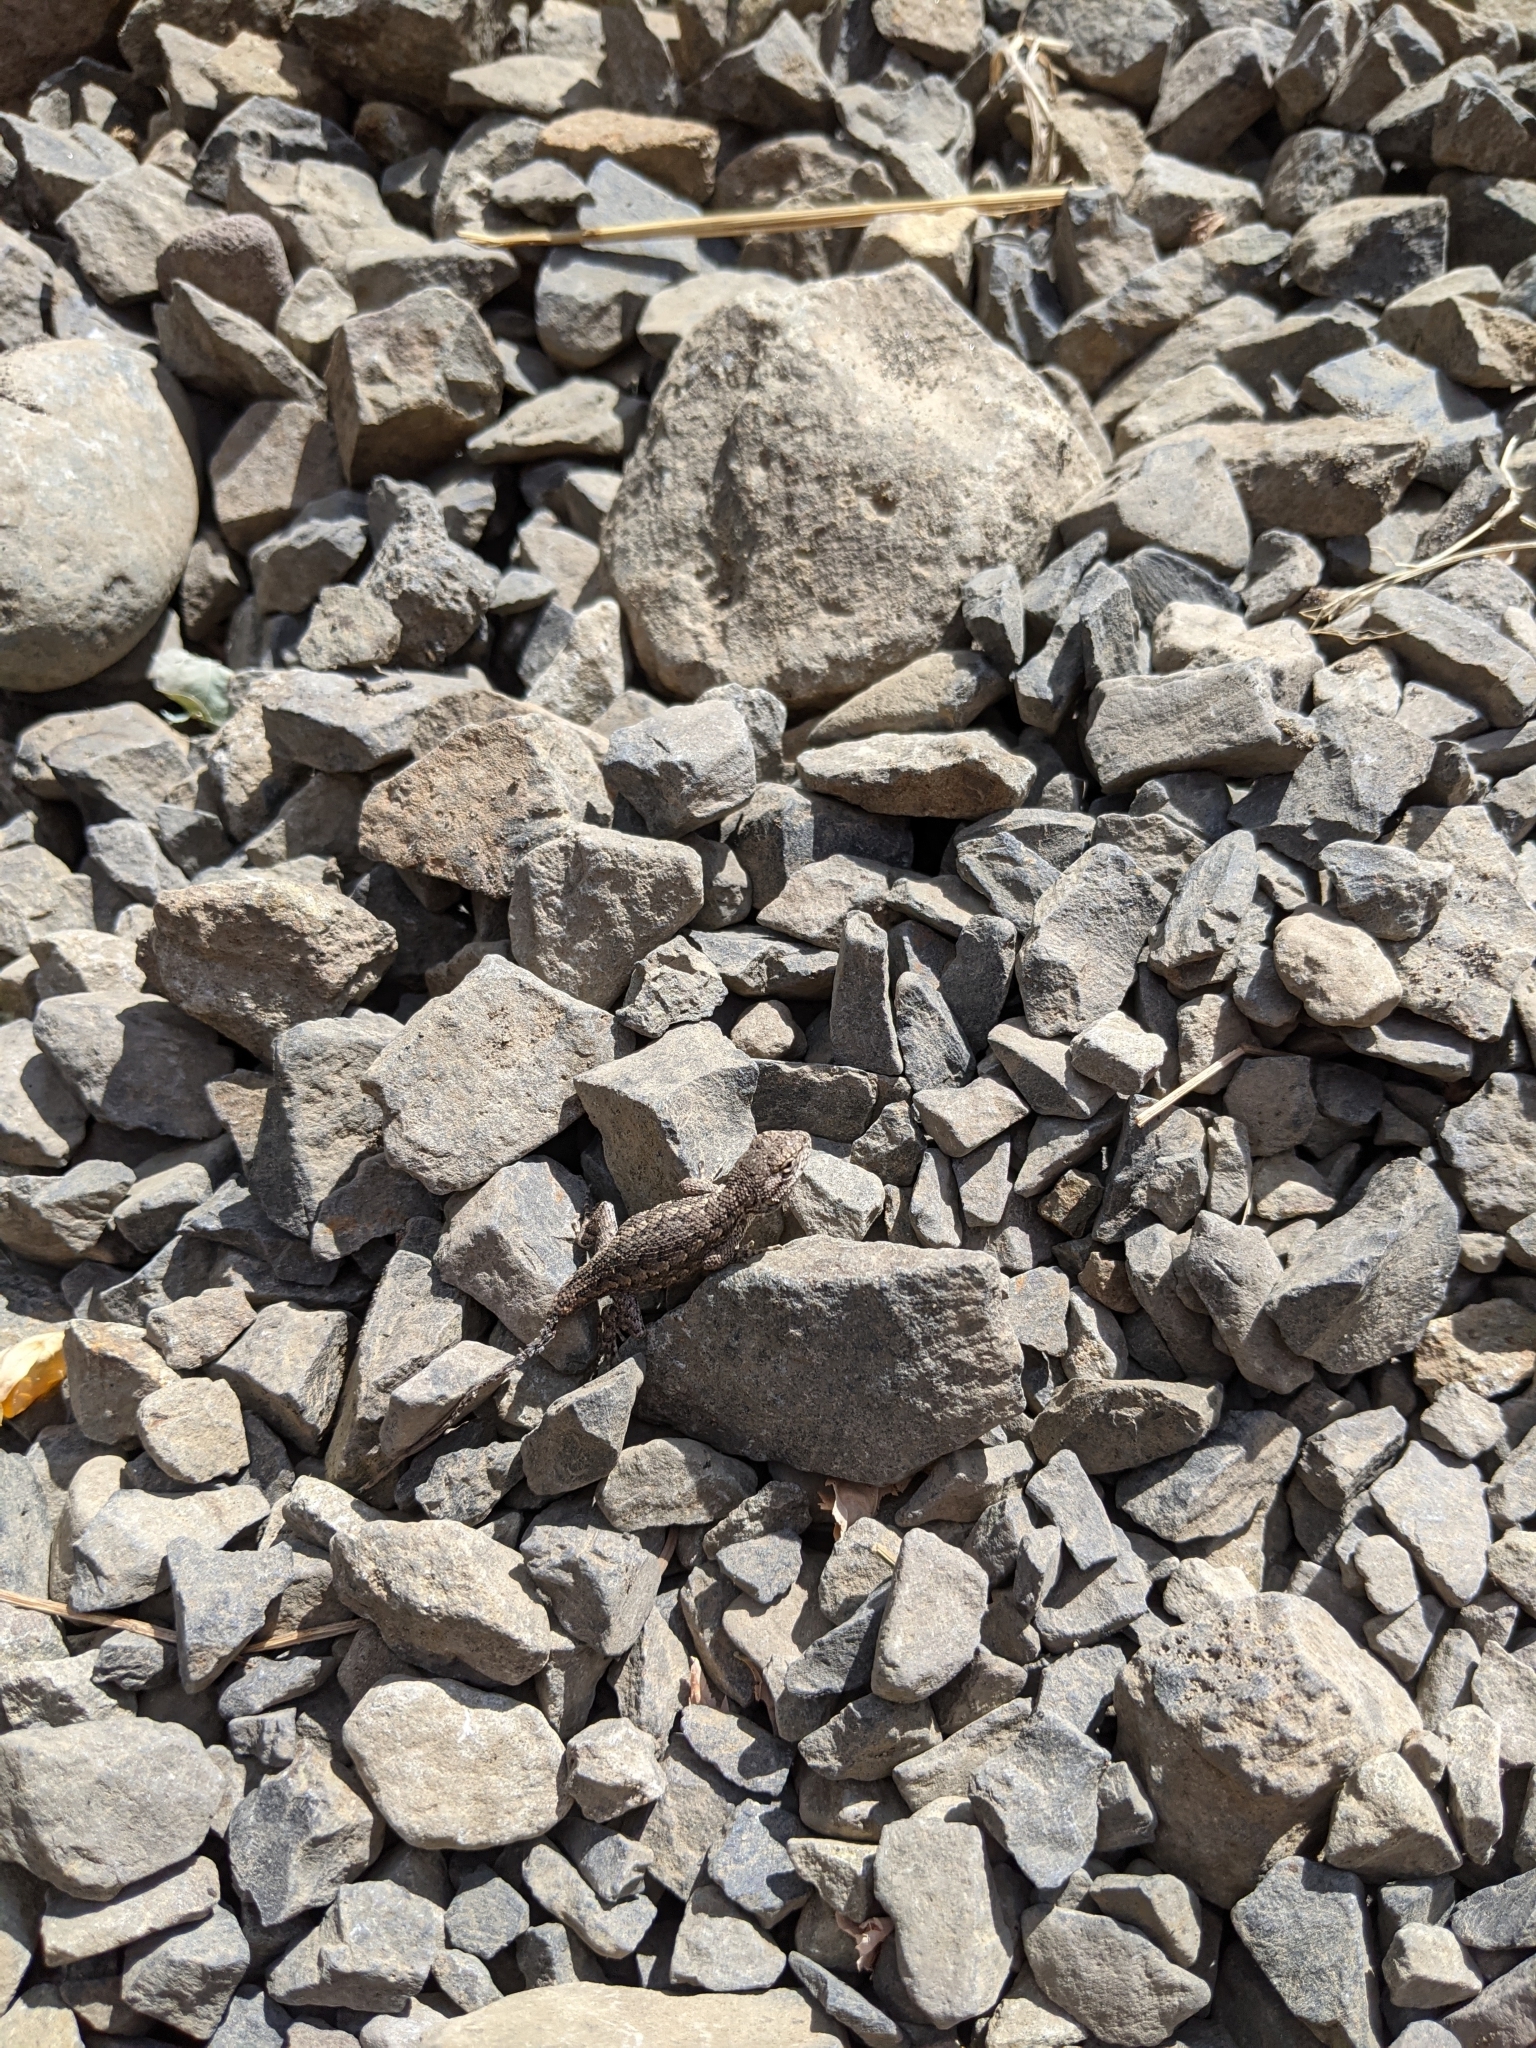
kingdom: Animalia
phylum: Chordata
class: Squamata
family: Phrynosomatidae
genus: Sceloporus
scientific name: Sceloporus occidentalis
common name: Western fence lizard
